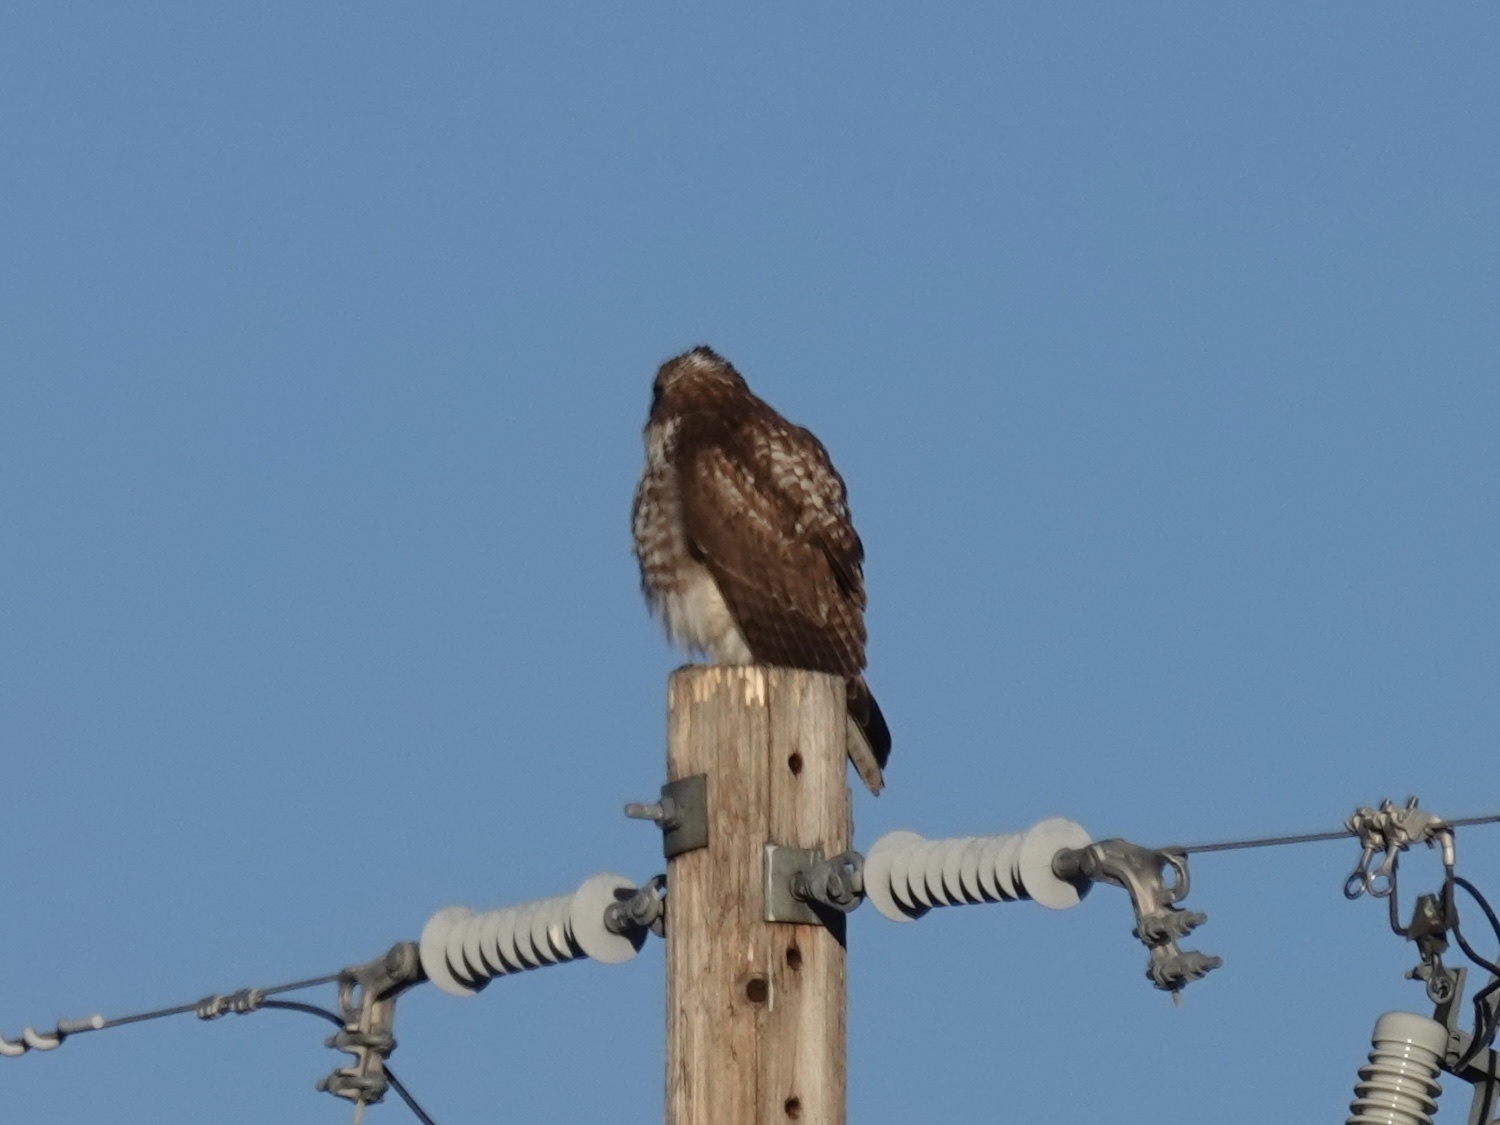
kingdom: Animalia
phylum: Chordata
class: Aves
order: Accipitriformes
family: Accipitridae
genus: Buteo
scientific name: Buteo jamaicensis
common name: Red-tailed hawk
